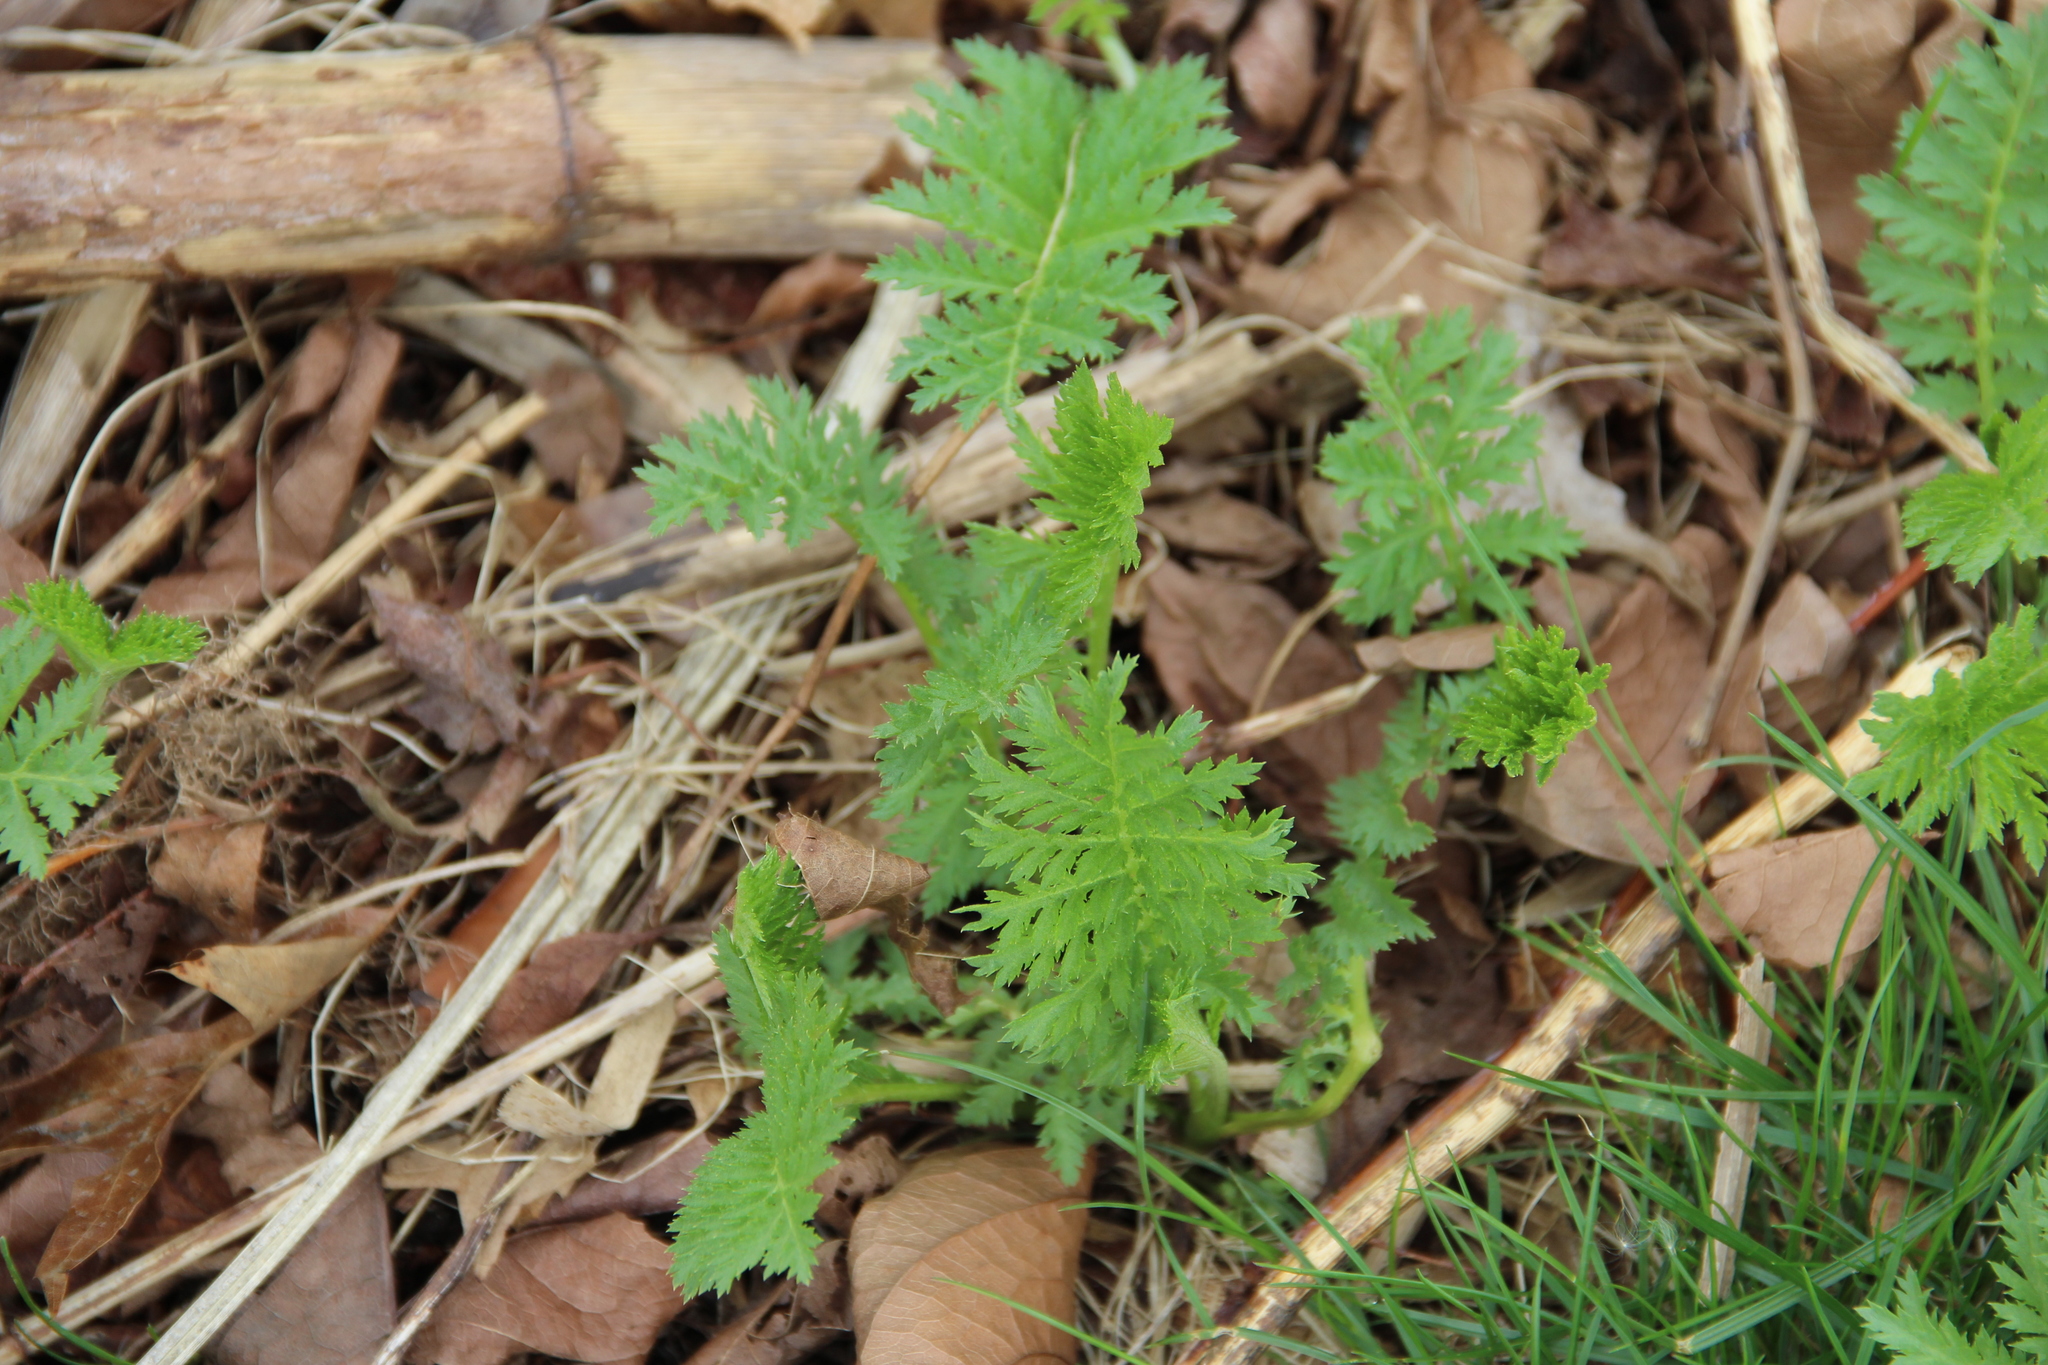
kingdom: Plantae
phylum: Tracheophyta
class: Magnoliopsida
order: Asterales
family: Asteraceae
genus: Tanacetum
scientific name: Tanacetum vulgare
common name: Common tansy
